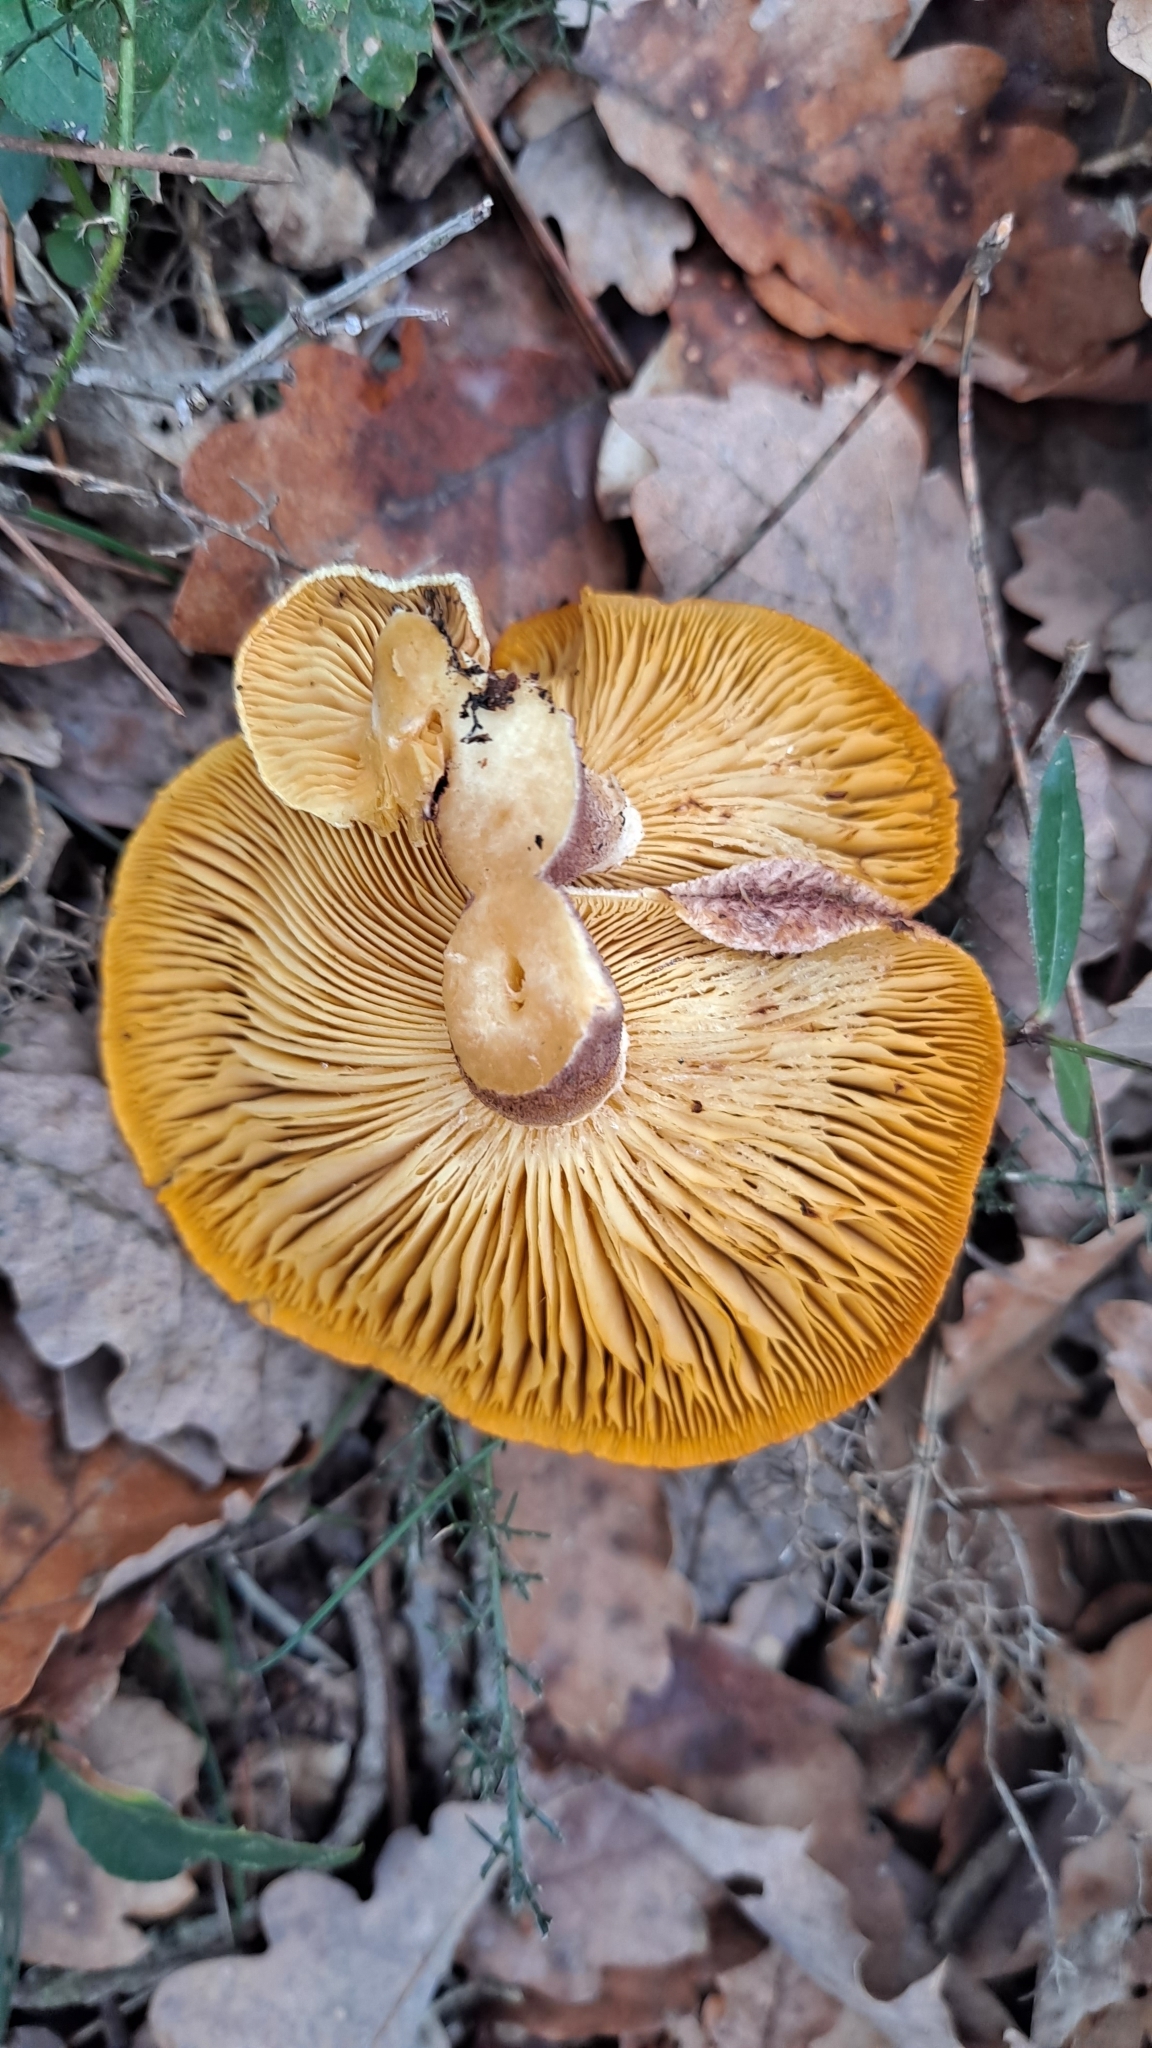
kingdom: Fungi
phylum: Basidiomycota
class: Agaricomycetes
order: Agaricales
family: Tricholomataceae
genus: Tricholomopsis
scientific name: Tricholomopsis rutilans
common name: Plums and custard
